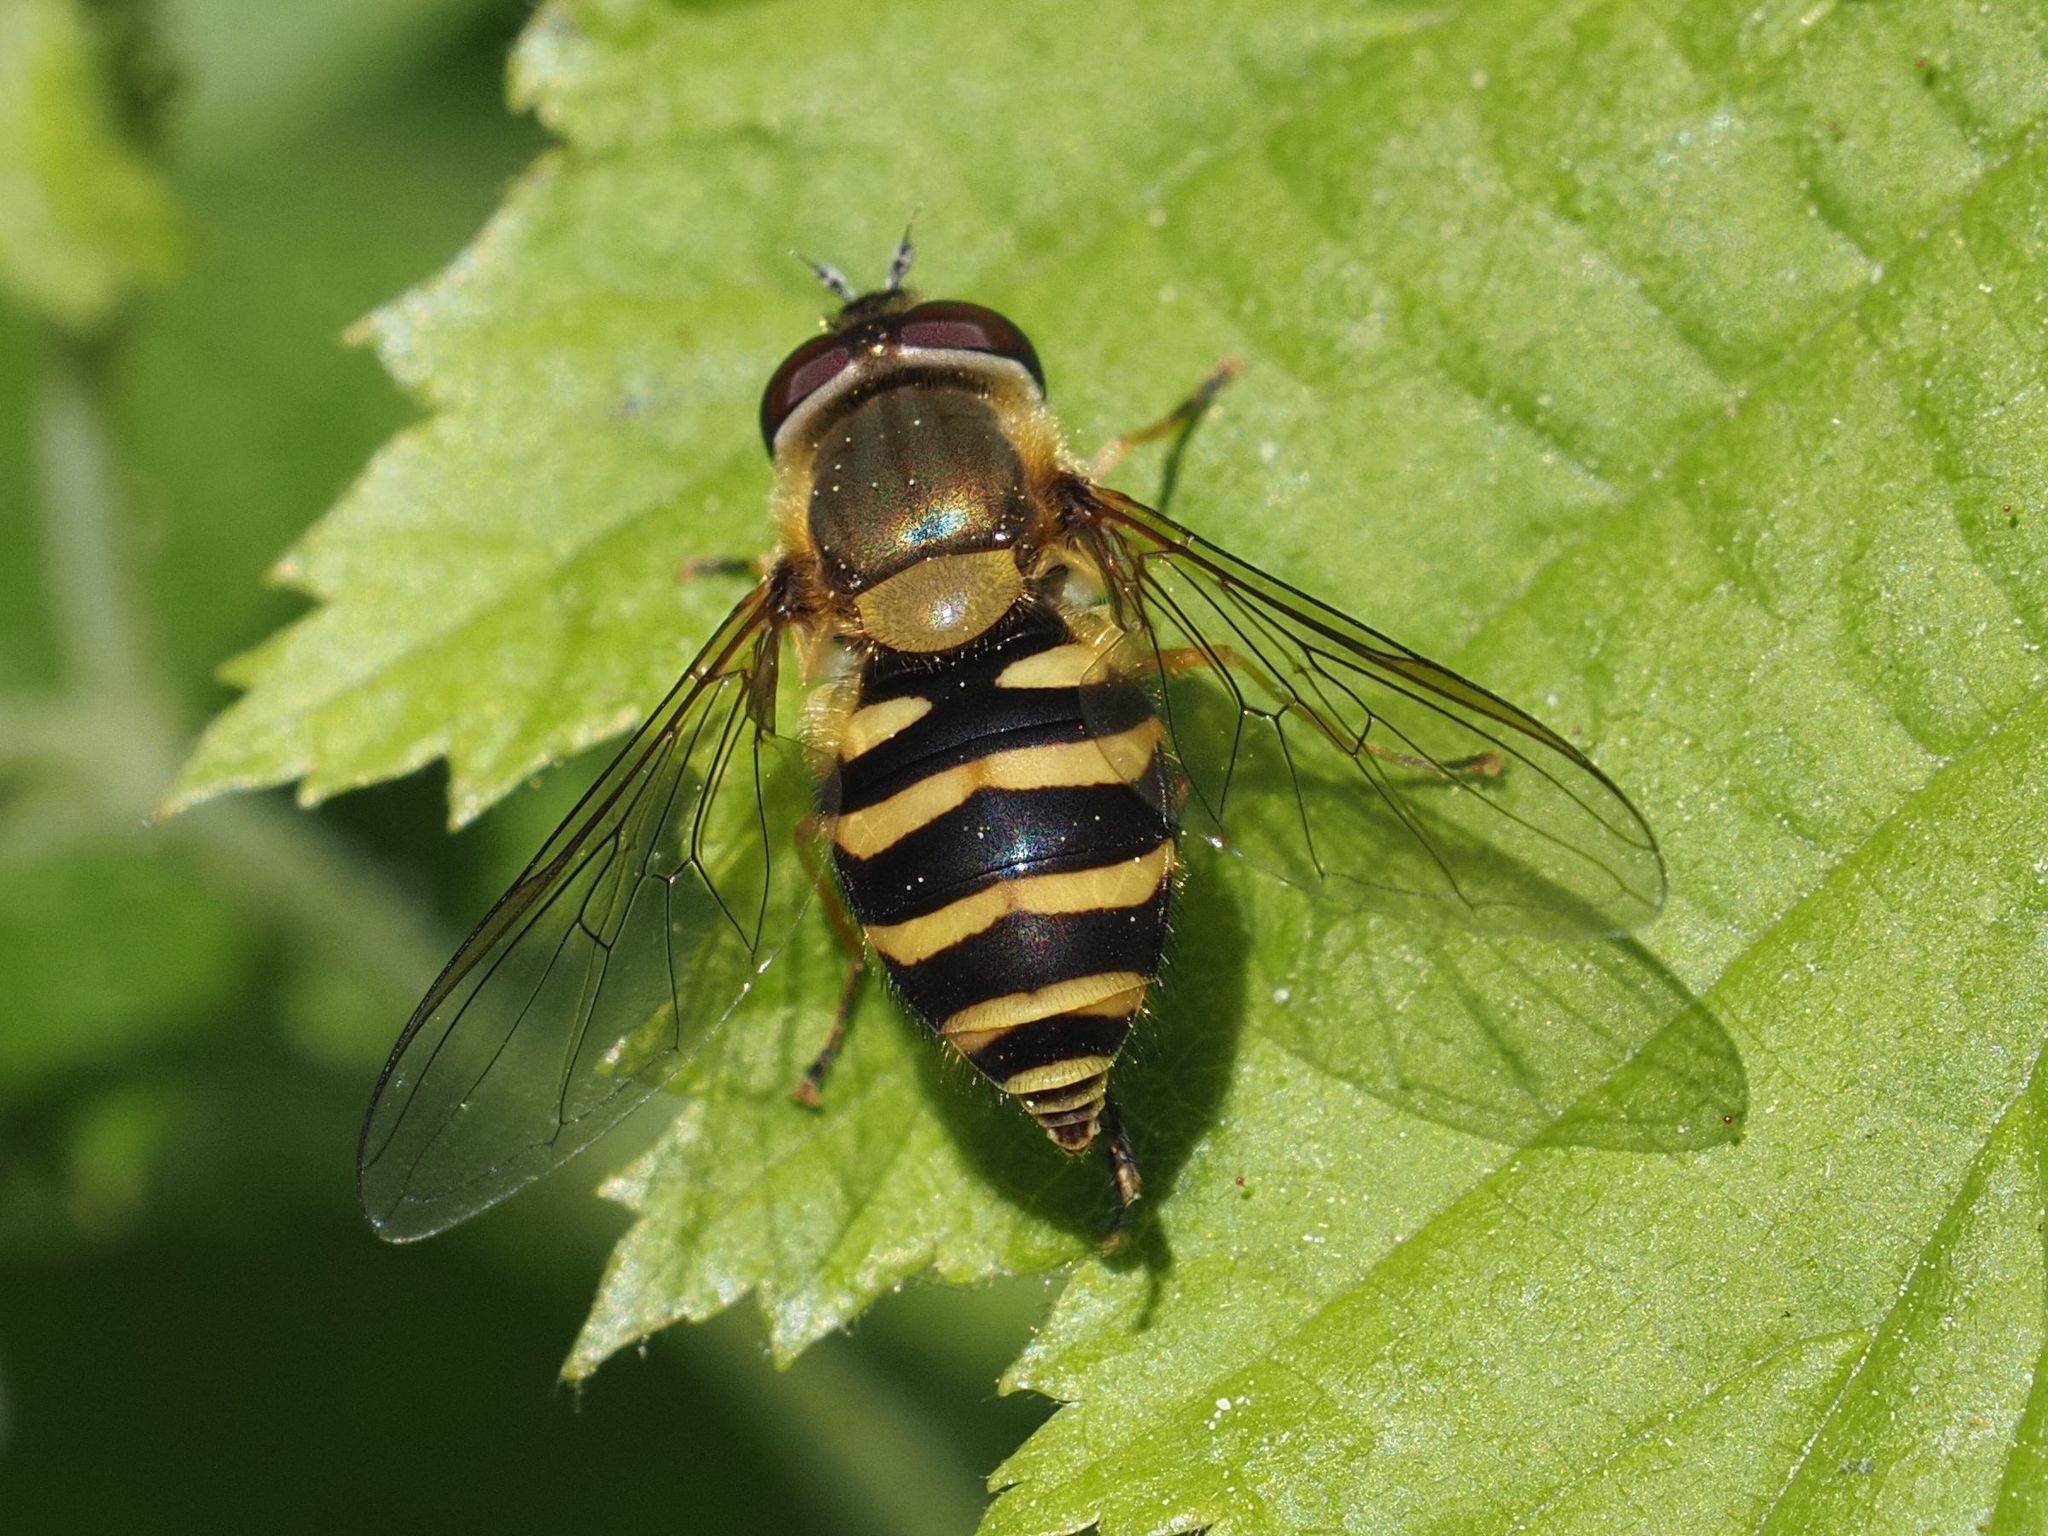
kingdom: Animalia
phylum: Arthropoda
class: Insecta
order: Diptera
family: Syrphidae
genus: Syrphus
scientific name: Syrphus
